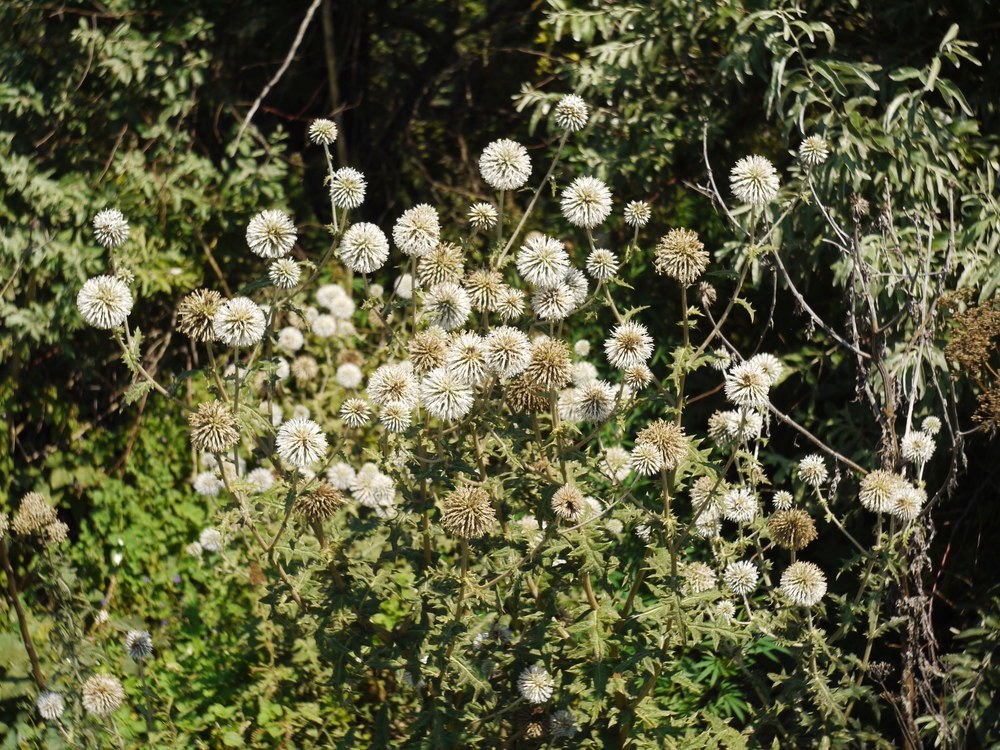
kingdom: Plantae
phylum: Tracheophyta
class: Magnoliopsida
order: Asterales
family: Asteraceae
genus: Echinops
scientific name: Echinops sphaerocephalus
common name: Glandular globe-thistle
